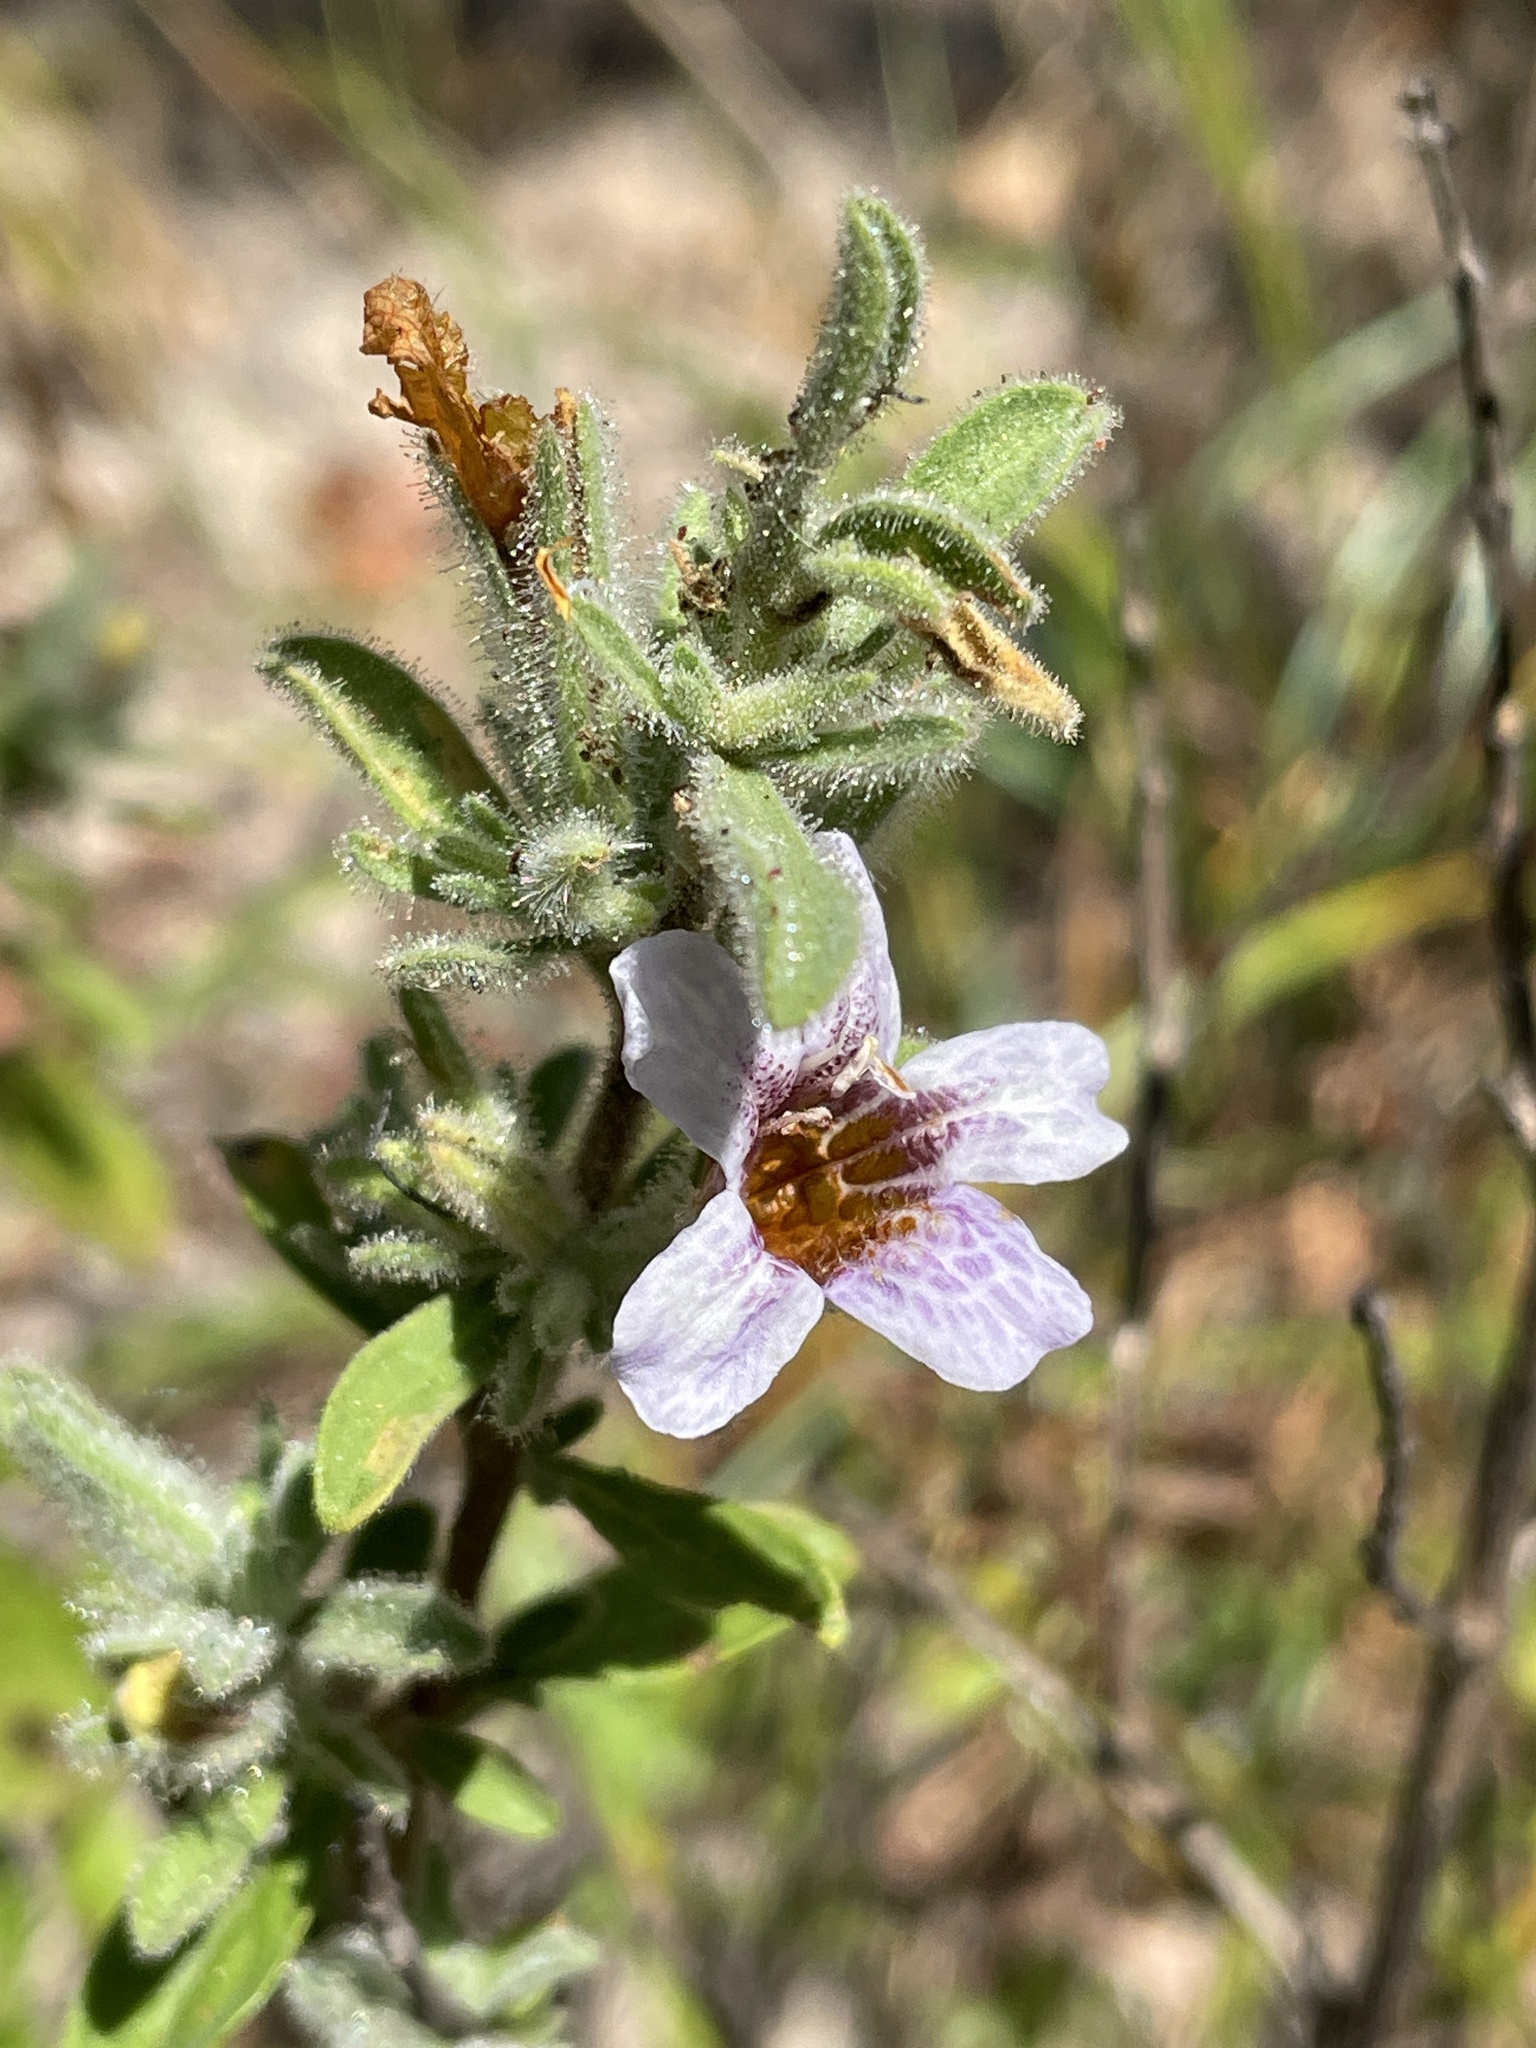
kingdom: Plantae
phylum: Tracheophyta
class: Magnoliopsida
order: Lamiales
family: Acanthaceae
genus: Strobilanthopsis
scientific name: Strobilanthopsis linifolia
